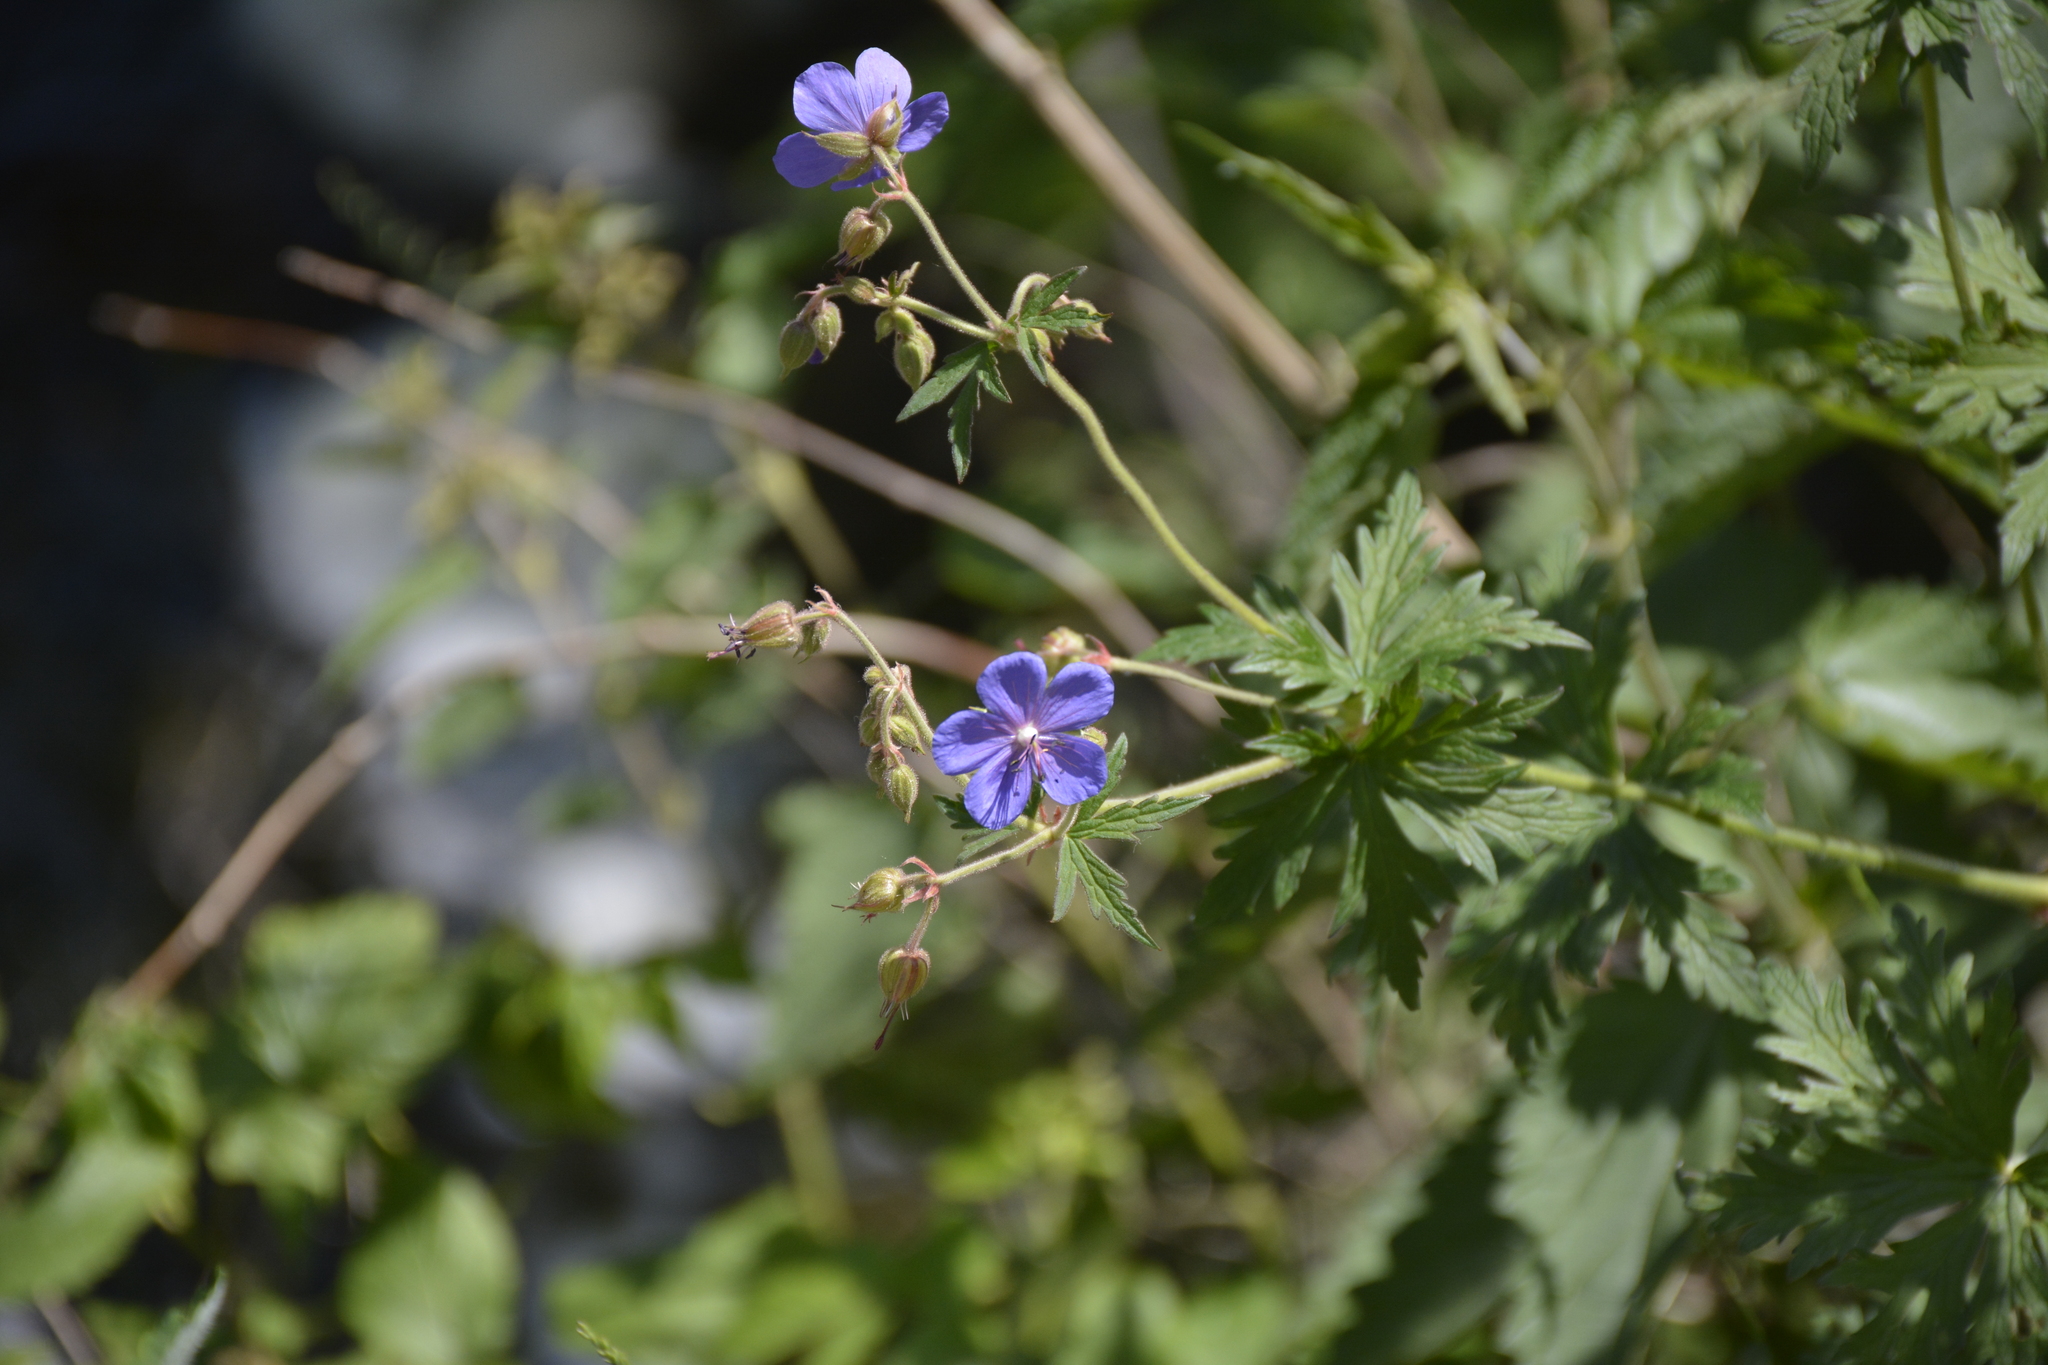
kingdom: Plantae
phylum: Tracheophyta
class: Magnoliopsida
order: Geraniales
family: Geraniaceae
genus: Geranium
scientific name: Geranium pratense
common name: Meadow crane's-bill
